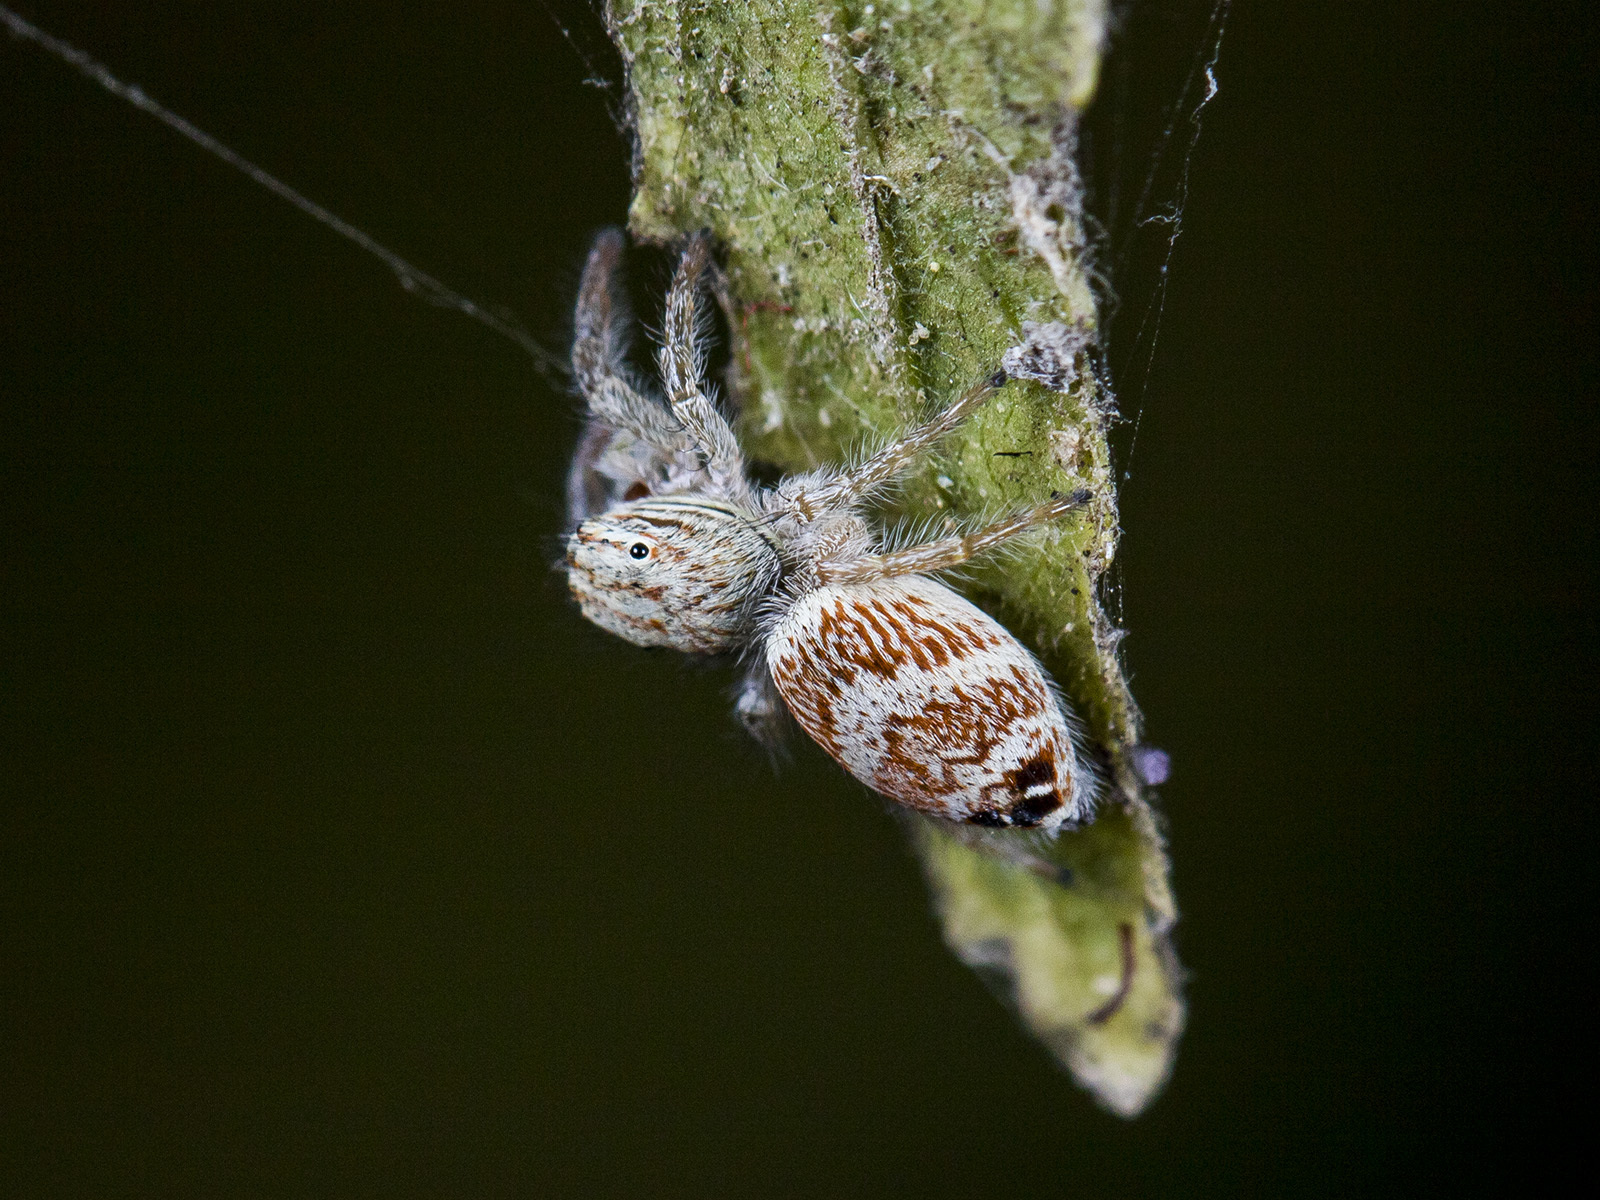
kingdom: Animalia
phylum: Arthropoda
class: Arachnida
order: Araneae
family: Salticidae
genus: Rudakius
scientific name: Rudakius cinctus
